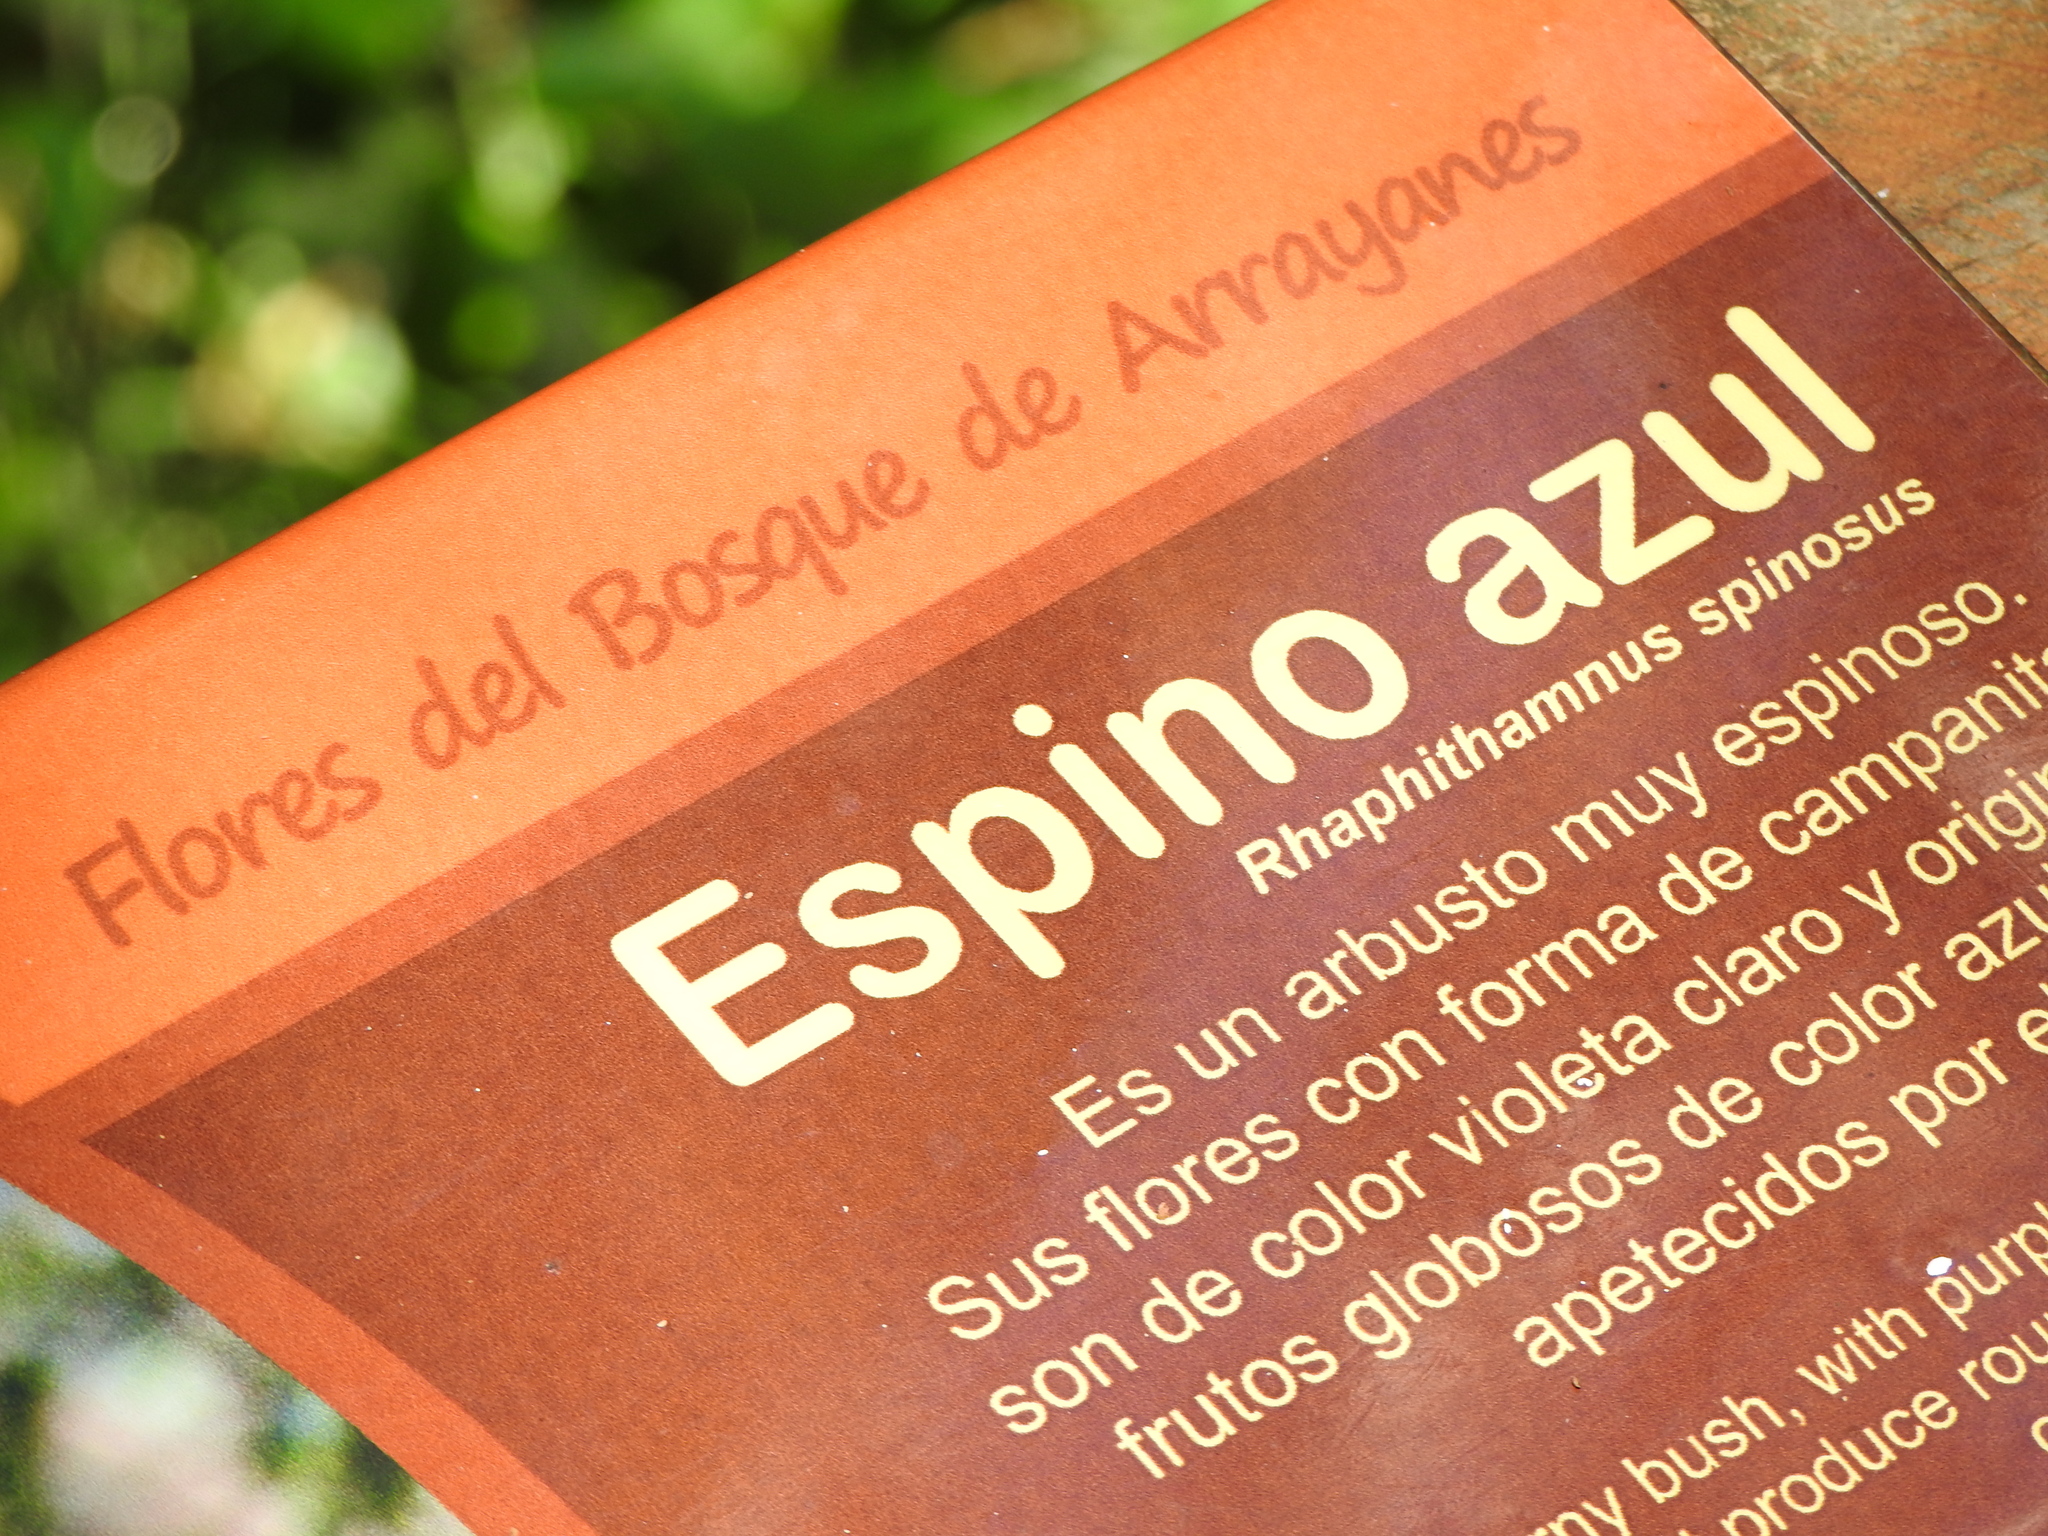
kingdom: Plantae
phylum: Tracheophyta
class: Magnoliopsida
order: Lamiales
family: Verbenaceae
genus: Rhaphithamnus
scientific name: Rhaphithamnus spinosus
